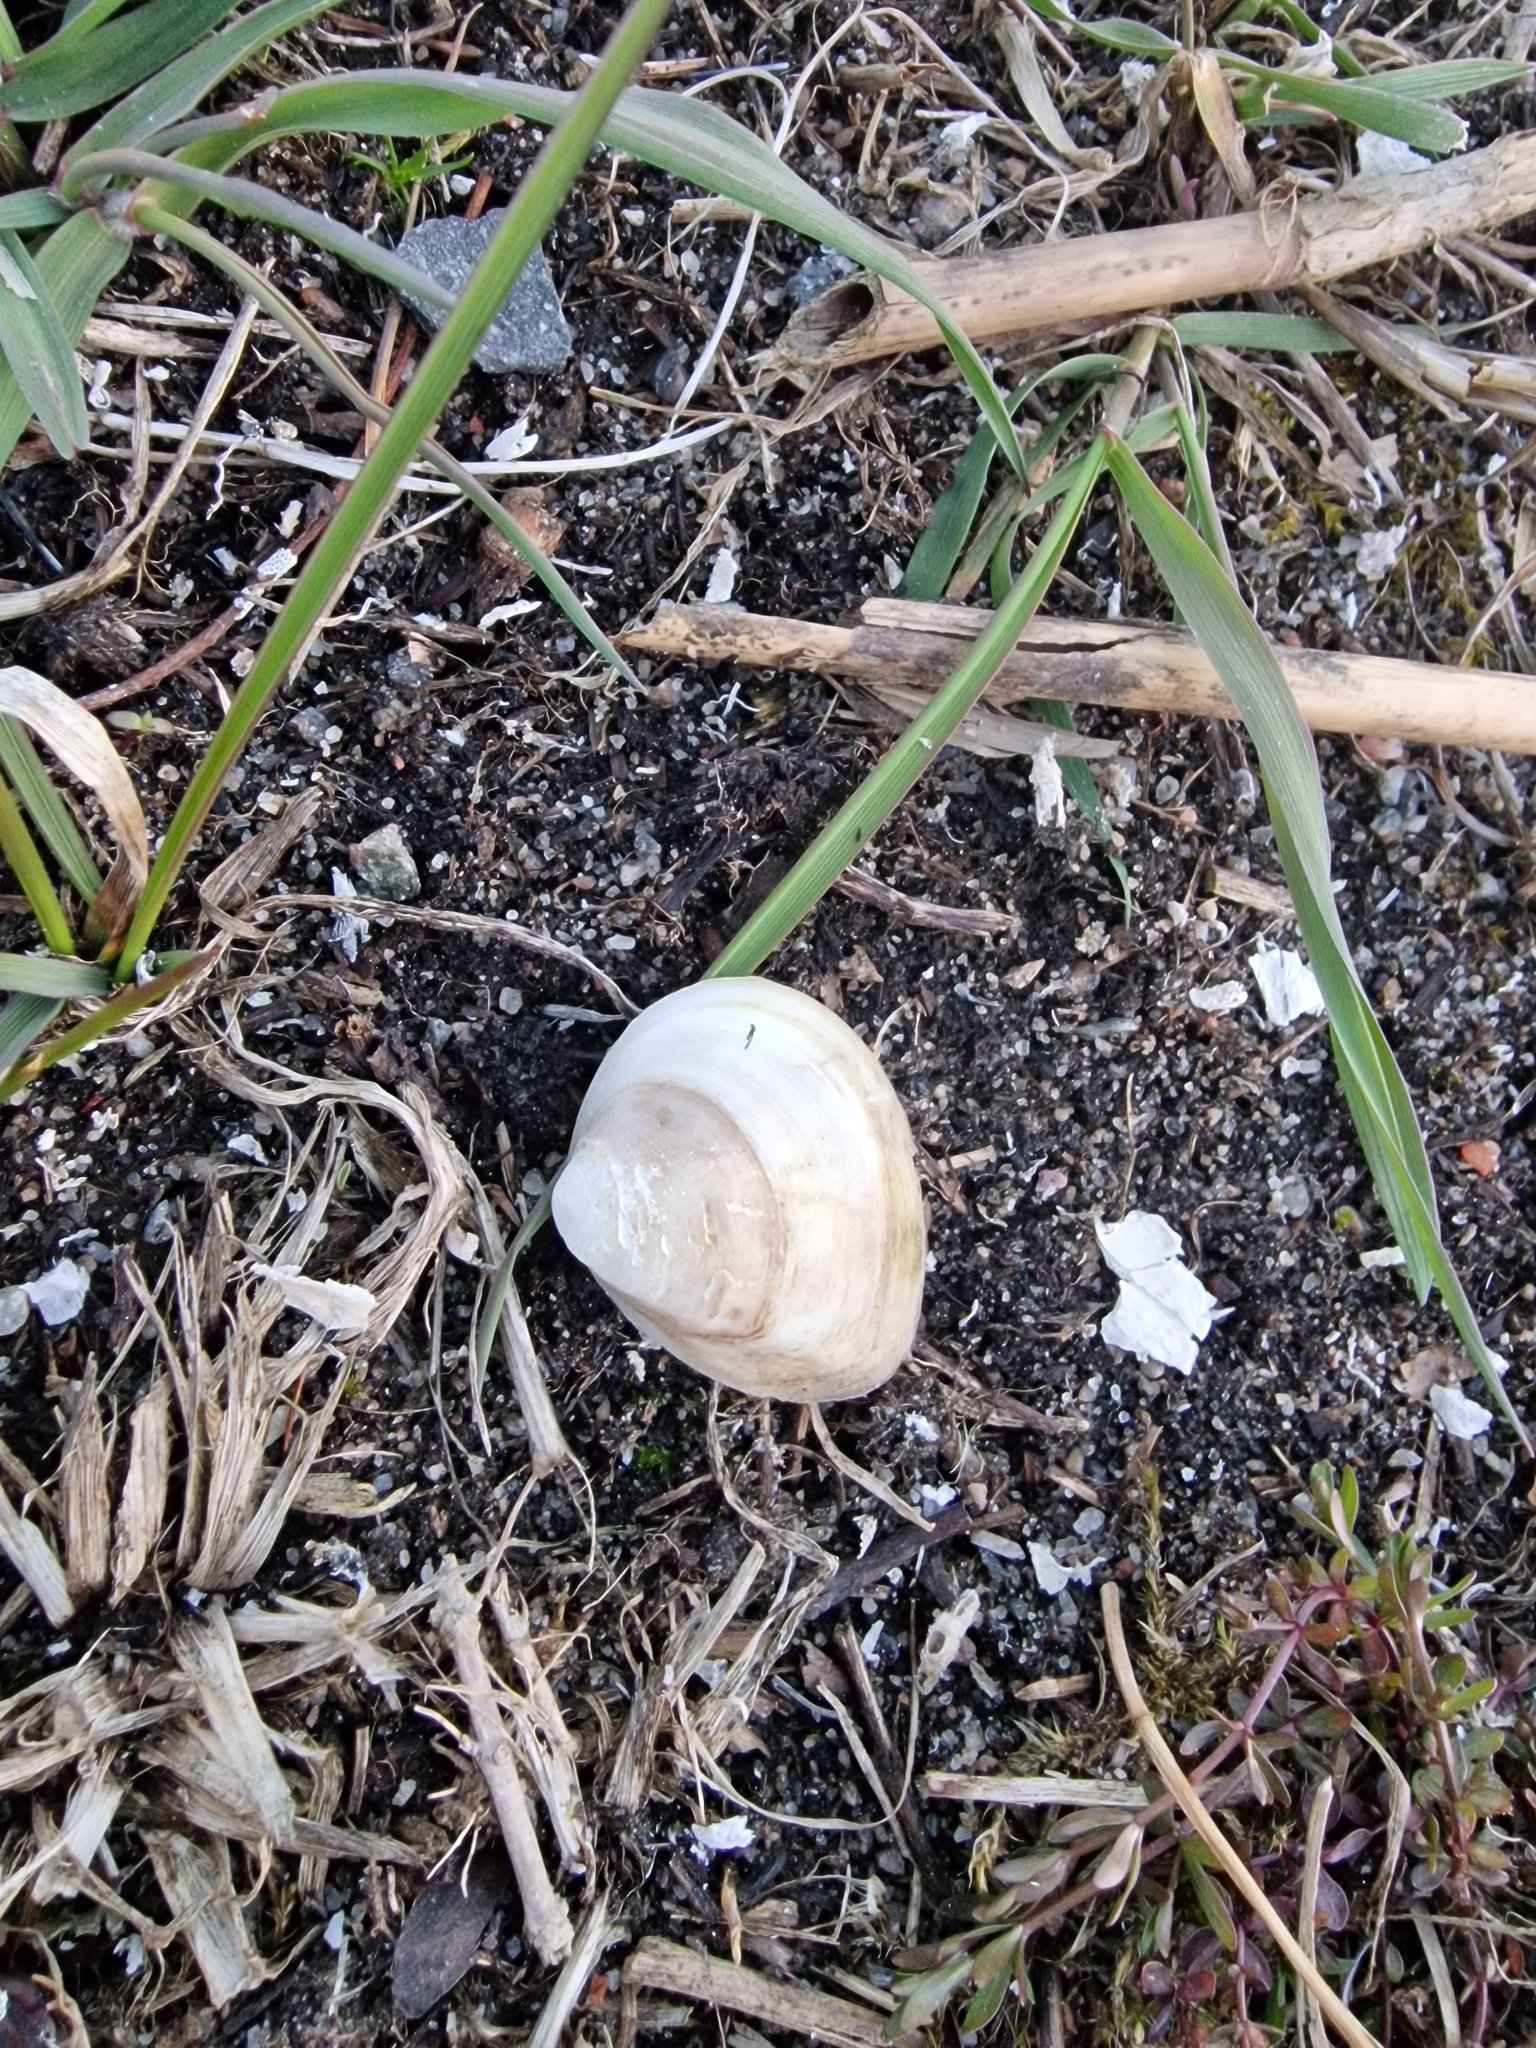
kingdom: Animalia
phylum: Mollusca
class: Bivalvia
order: Venerida
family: Mactridae
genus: Rangia
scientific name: Rangia cuneata
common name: Atlantic rangia
